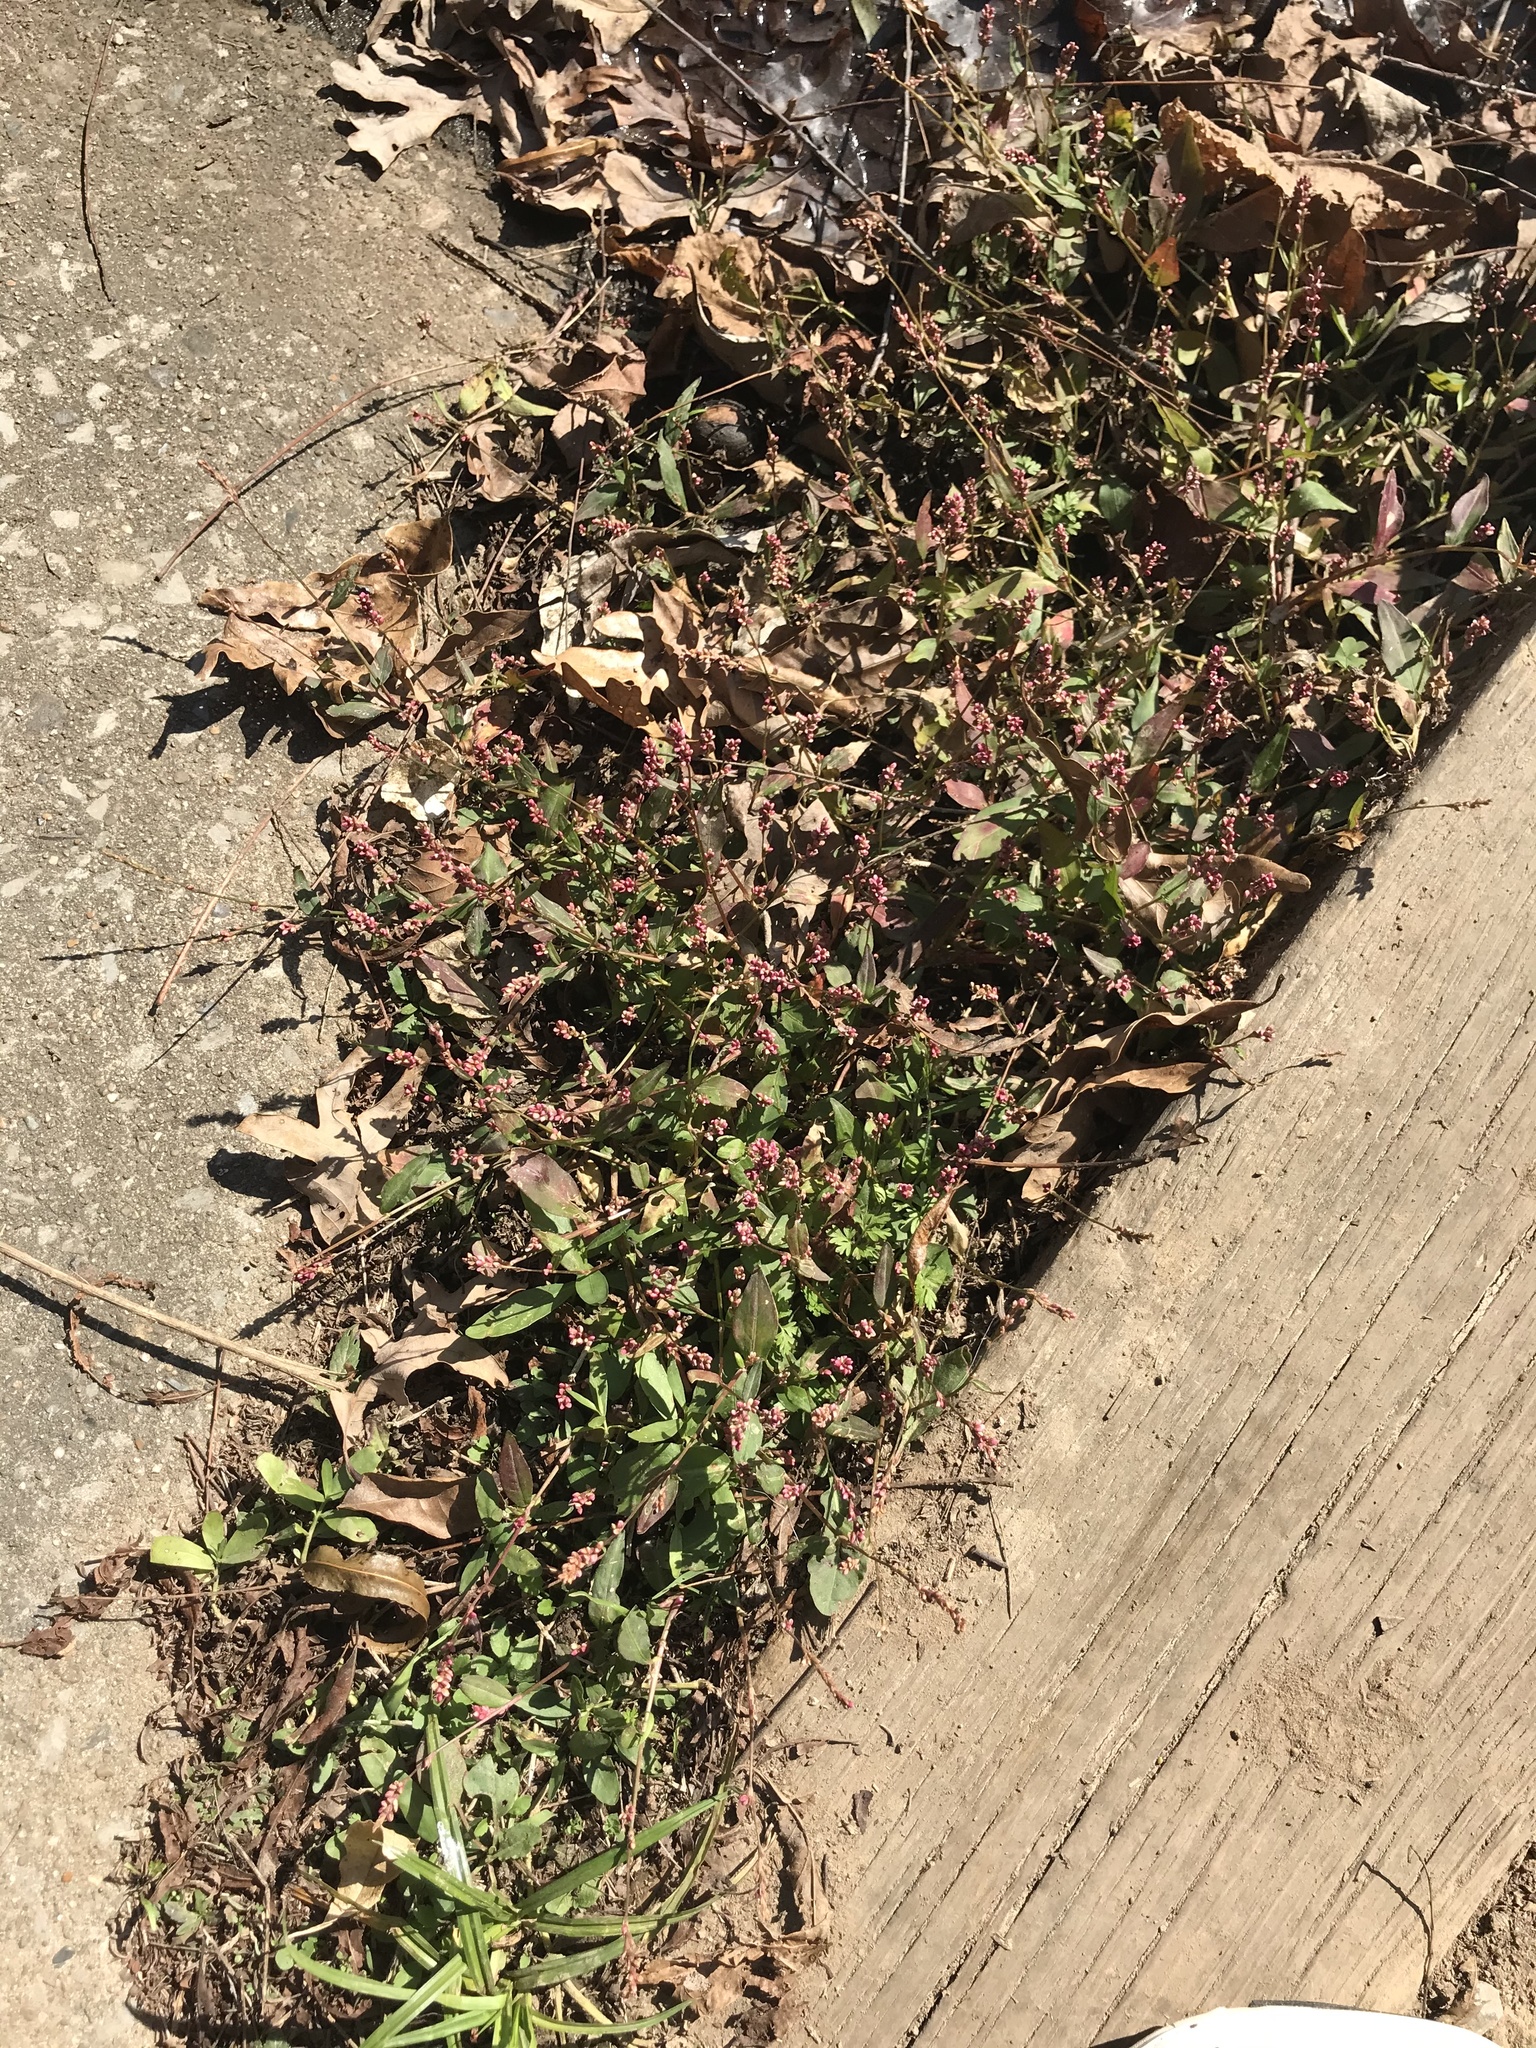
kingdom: Plantae
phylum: Tracheophyta
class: Magnoliopsida
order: Caryophyllales
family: Polygonaceae
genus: Persicaria
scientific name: Persicaria maculosa
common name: Redshank
